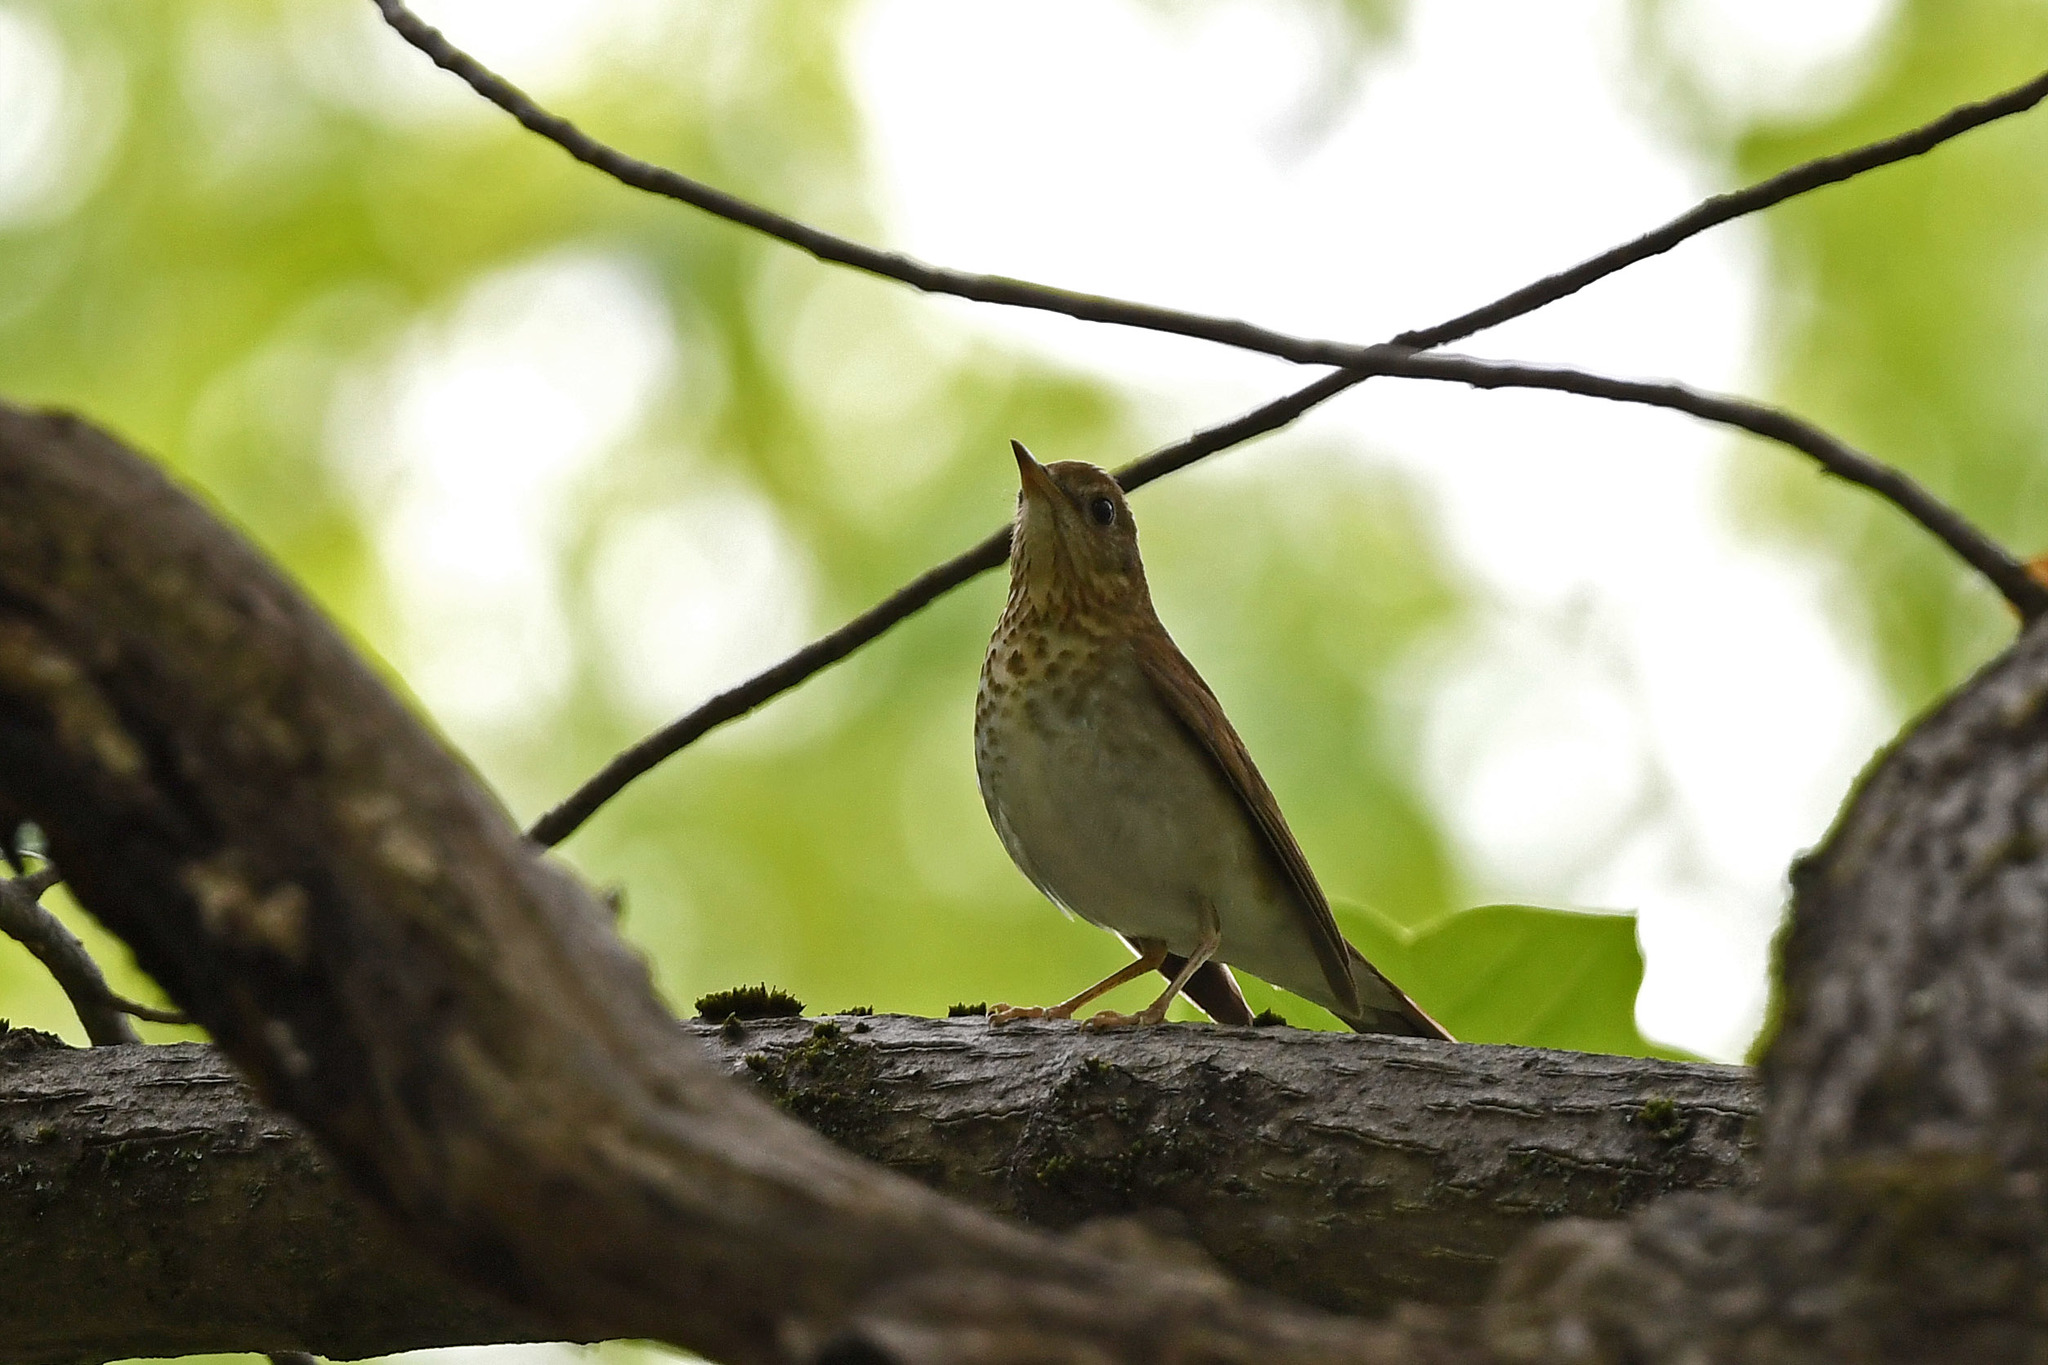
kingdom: Animalia
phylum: Chordata
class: Aves
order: Passeriformes
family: Turdidae
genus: Catharus
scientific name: Catharus fuscescens
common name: Veery
